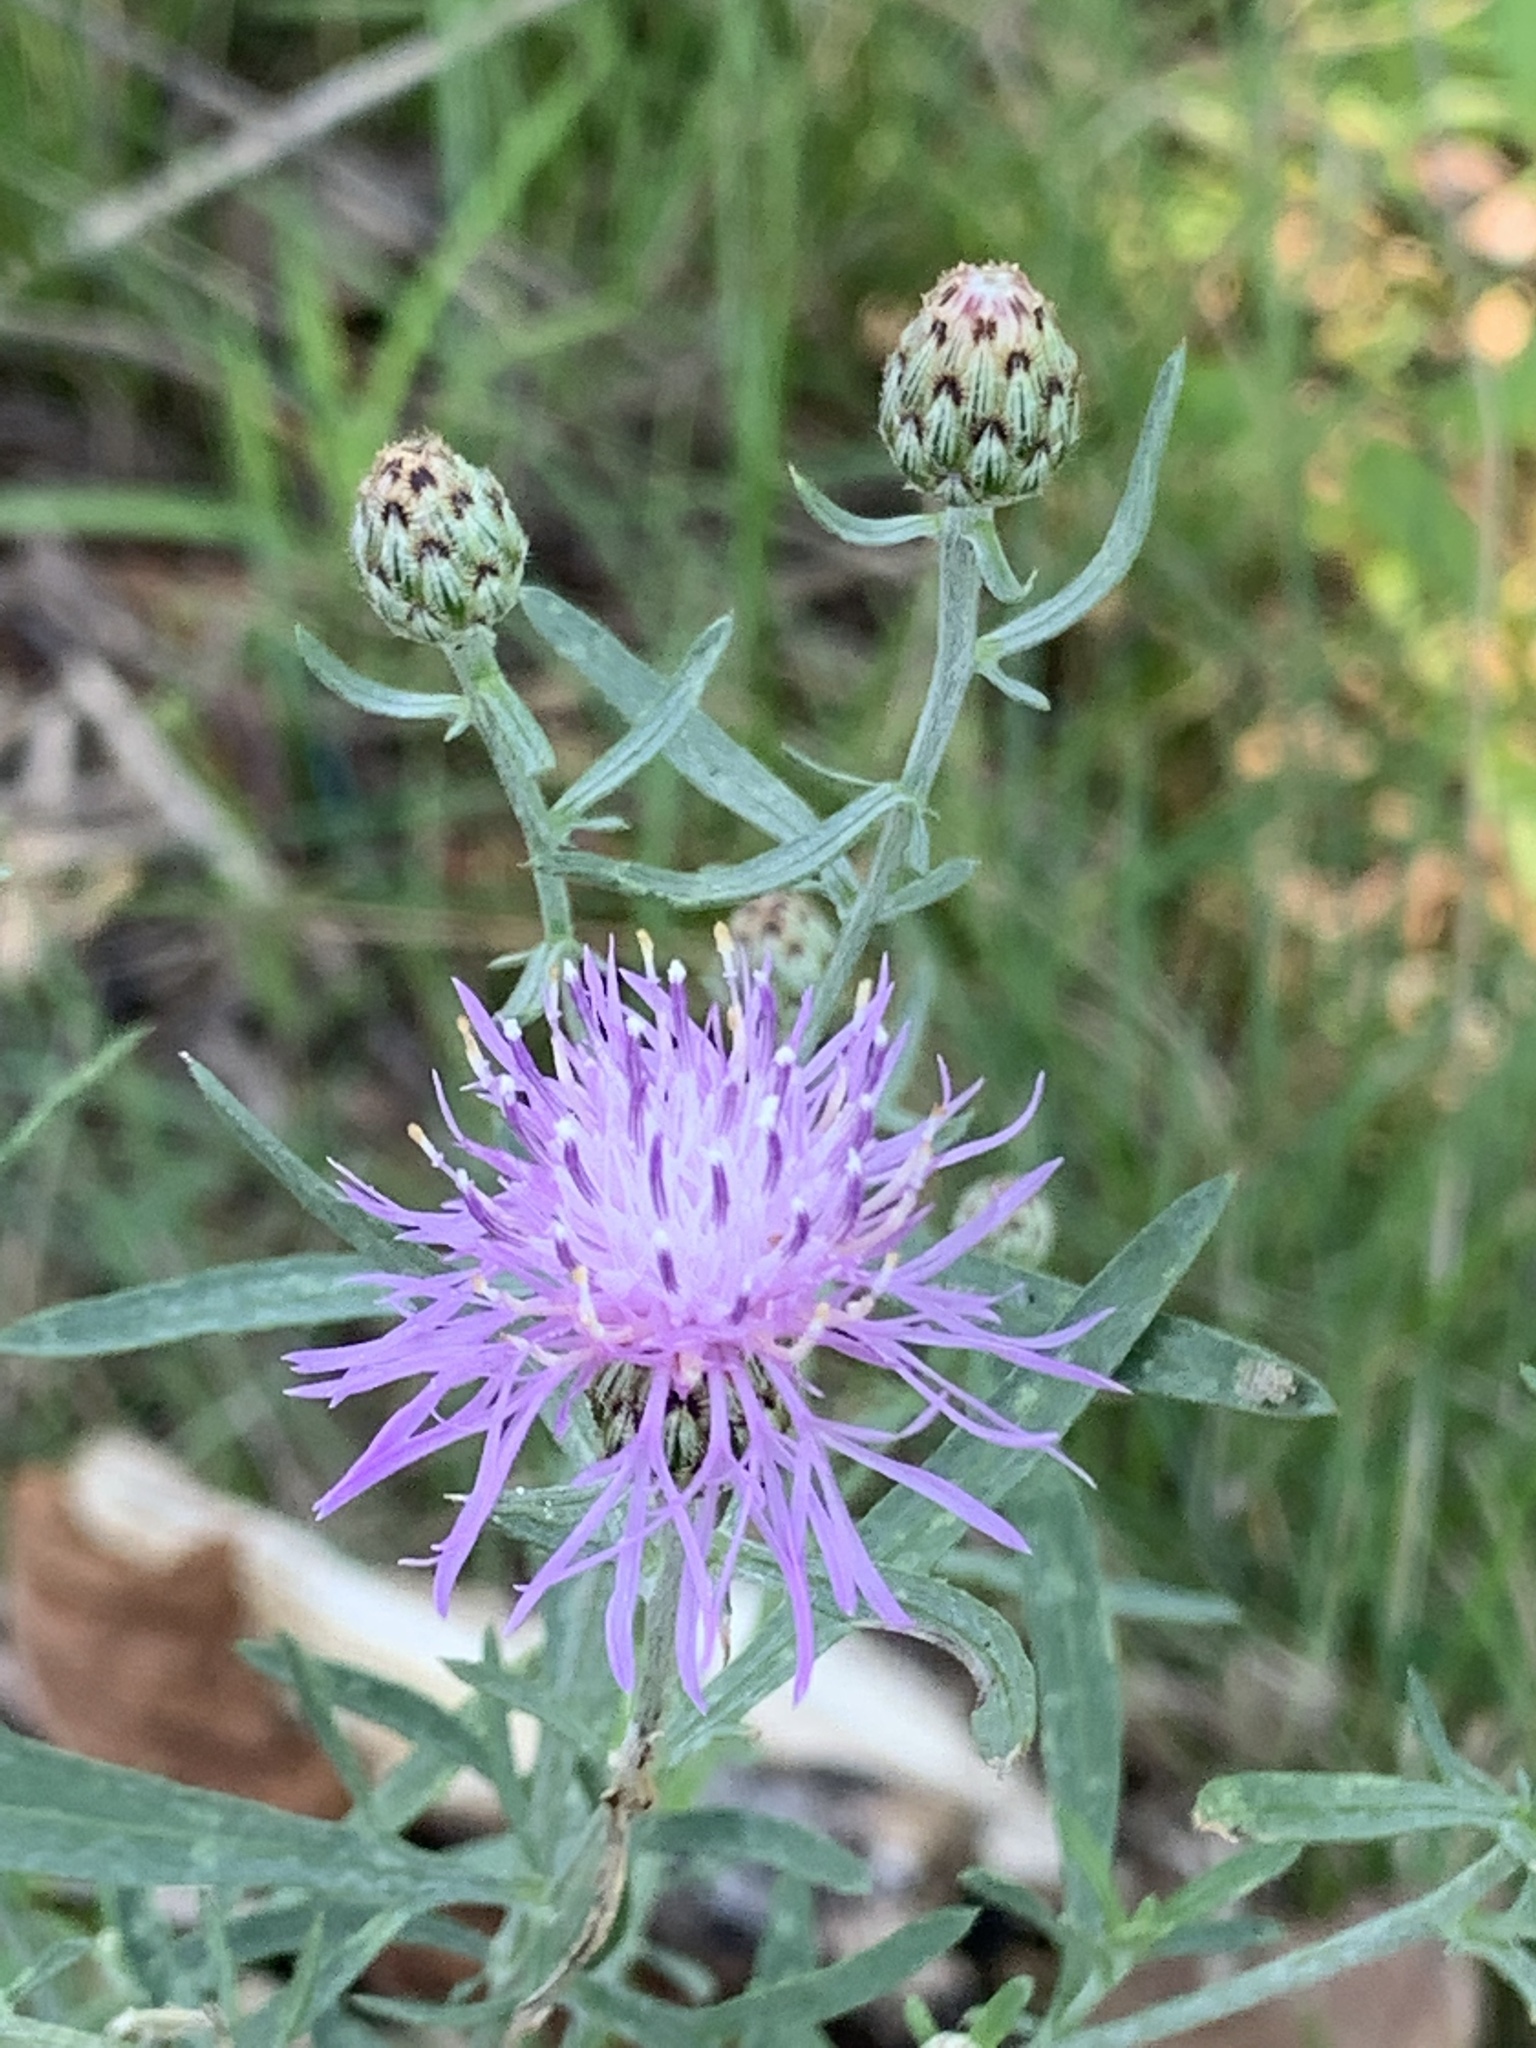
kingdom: Plantae
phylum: Tracheophyta
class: Magnoliopsida
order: Asterales
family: Asteraceae
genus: Centaurea
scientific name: Centaurea stoebe
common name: Spotted knapweed
